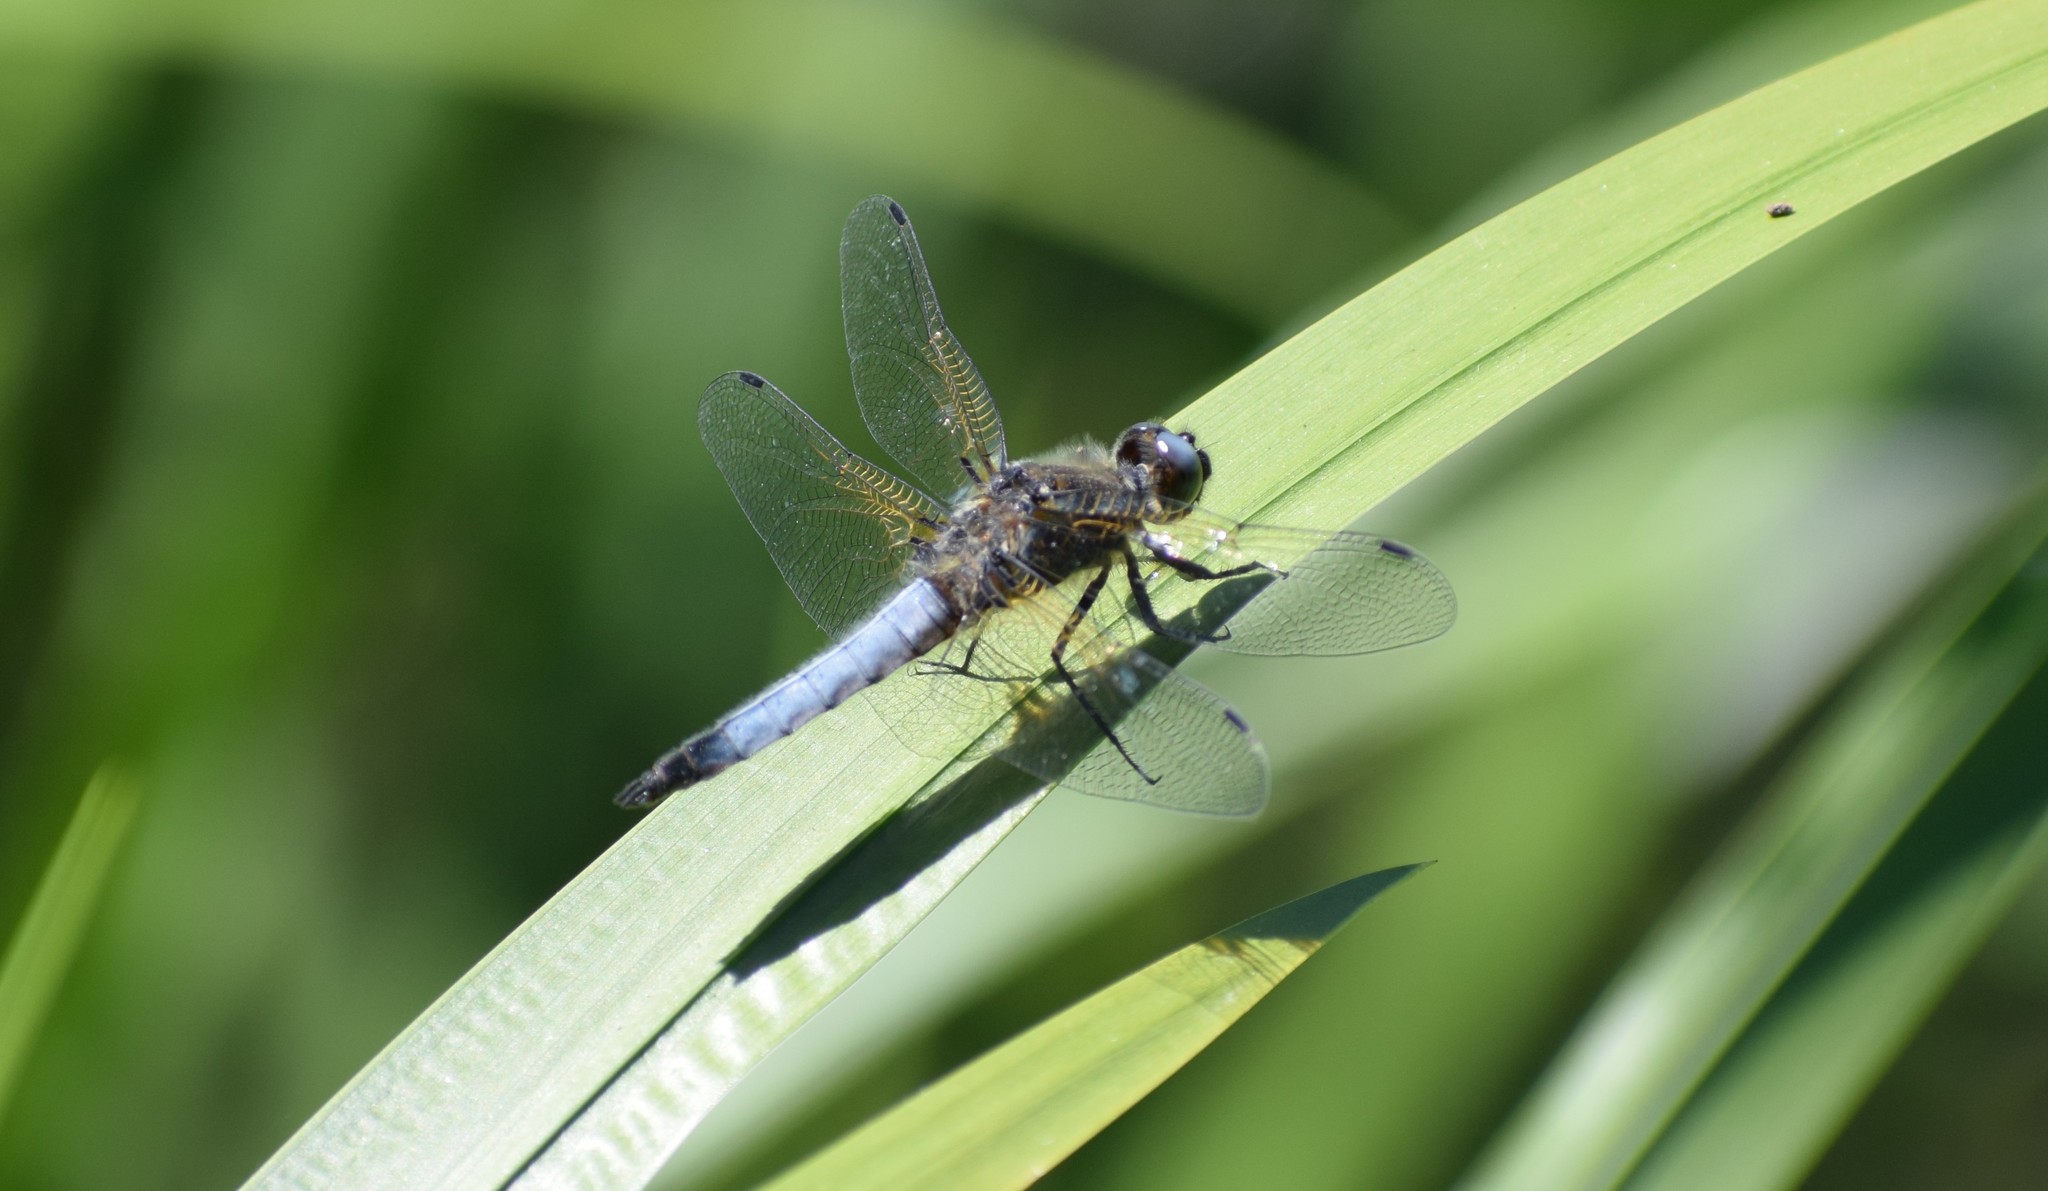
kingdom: Animalia
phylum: Arthropoda
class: Insecta
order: Odonata
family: Libellulidae
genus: Libellula
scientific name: Libellula fulva
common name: Blue chaser
